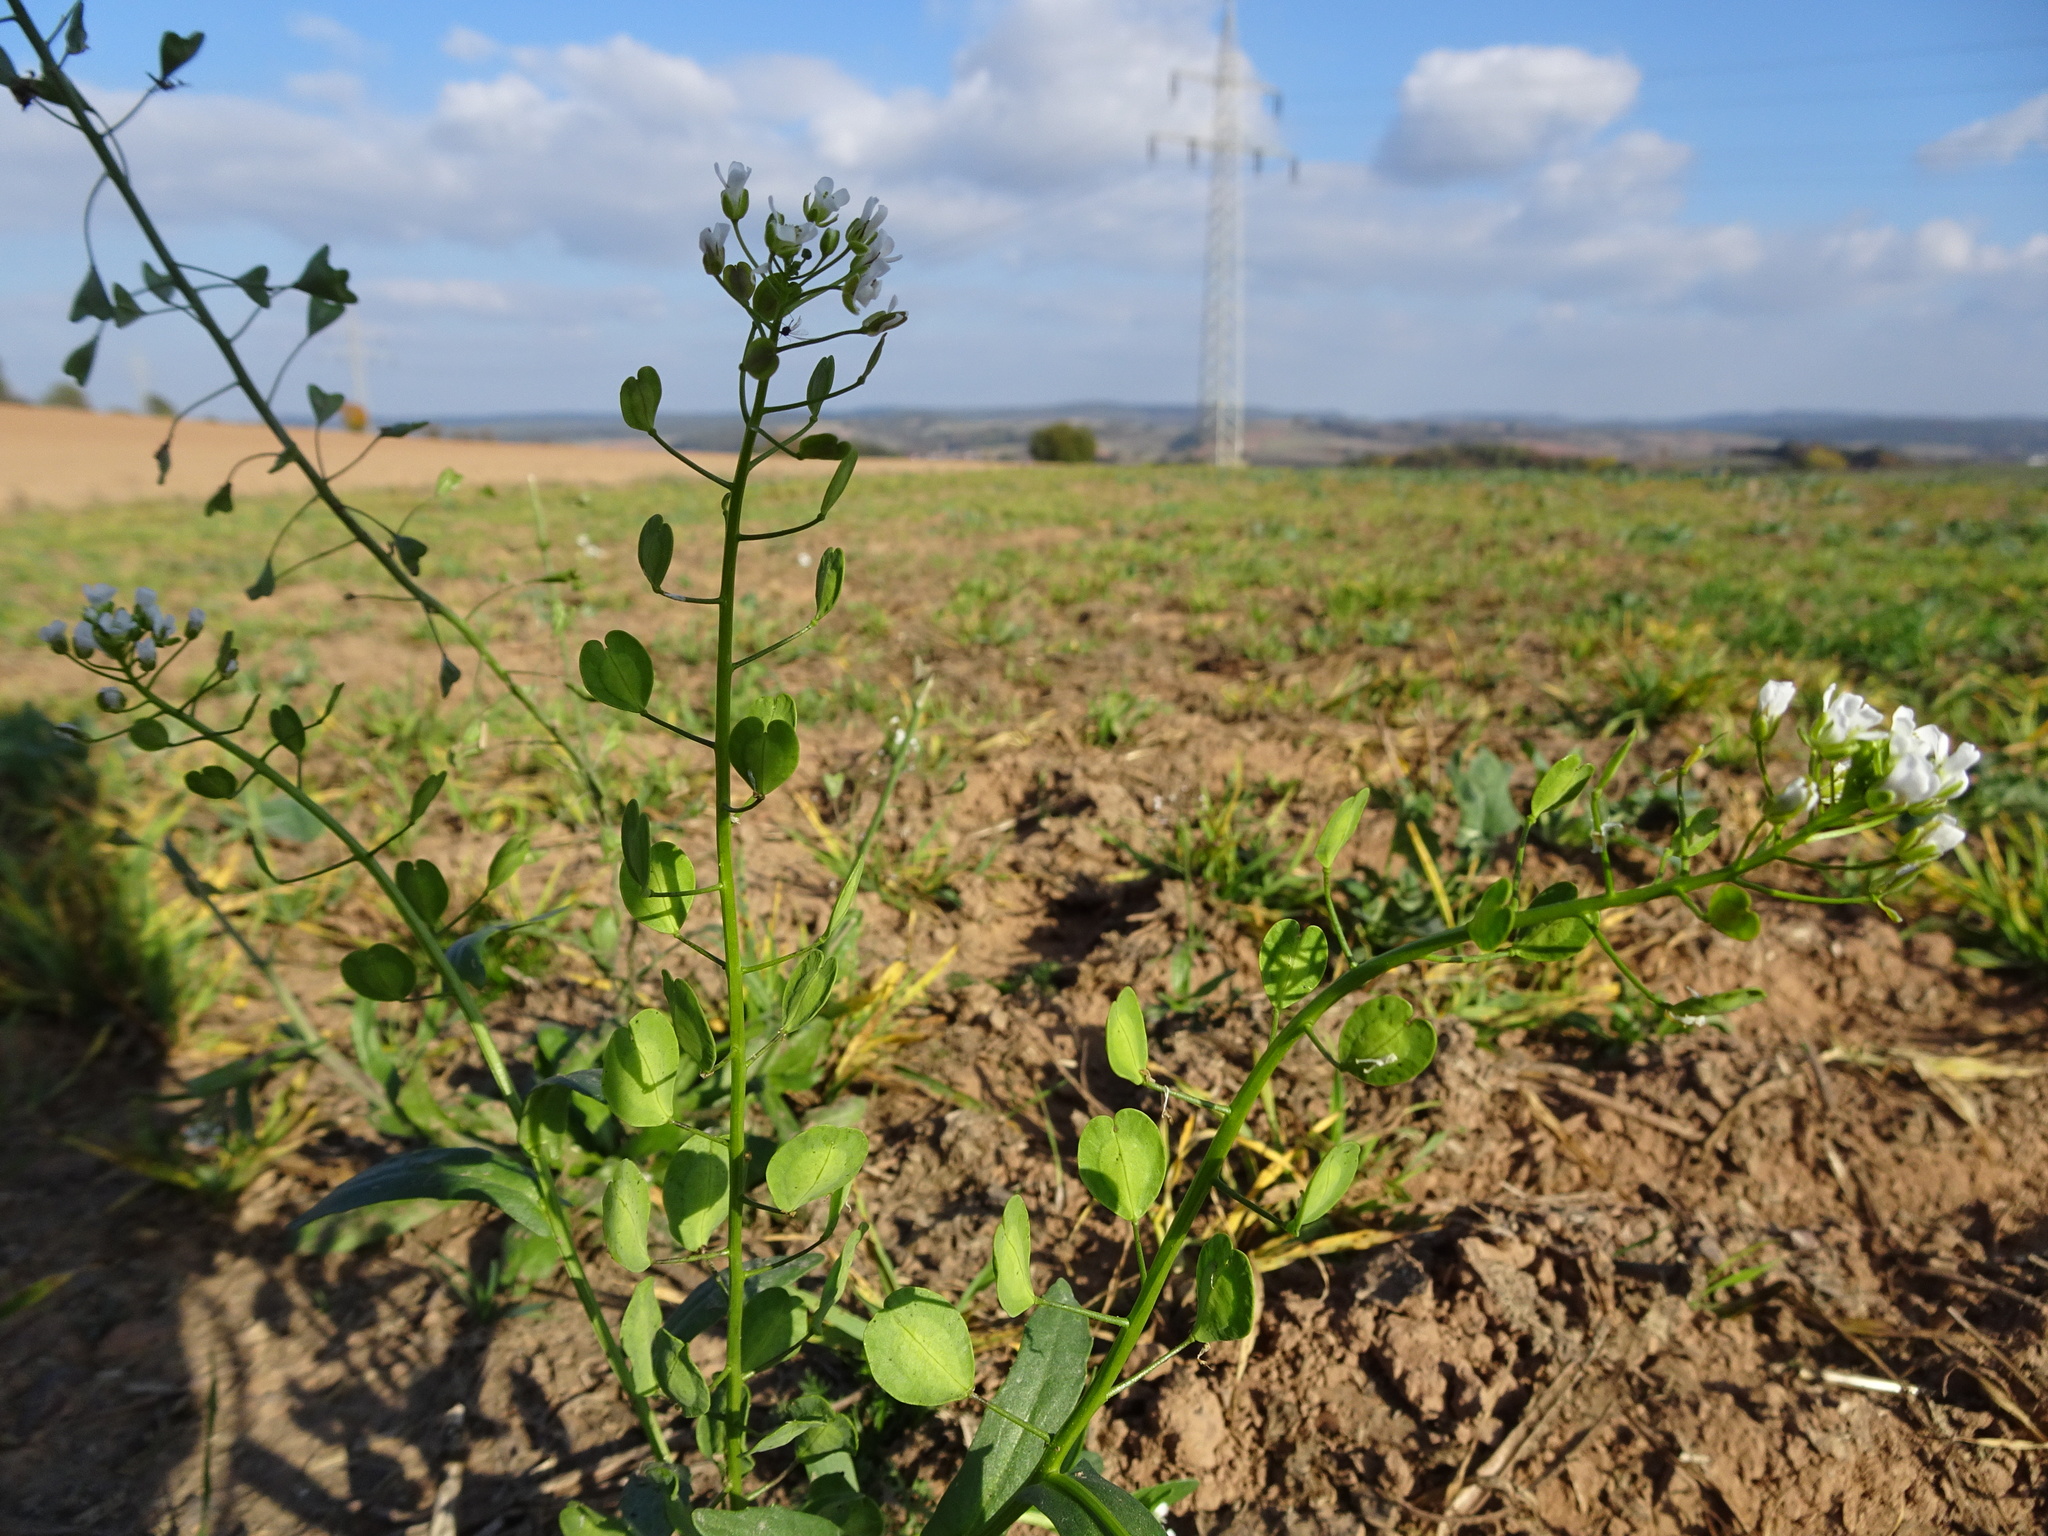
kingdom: Plantae
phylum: Tracheophyta
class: Magnoliopsida
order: Brassicales
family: Brassicaceae
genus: Thlaspi
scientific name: Thlaspi arvense
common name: Field pennycress
